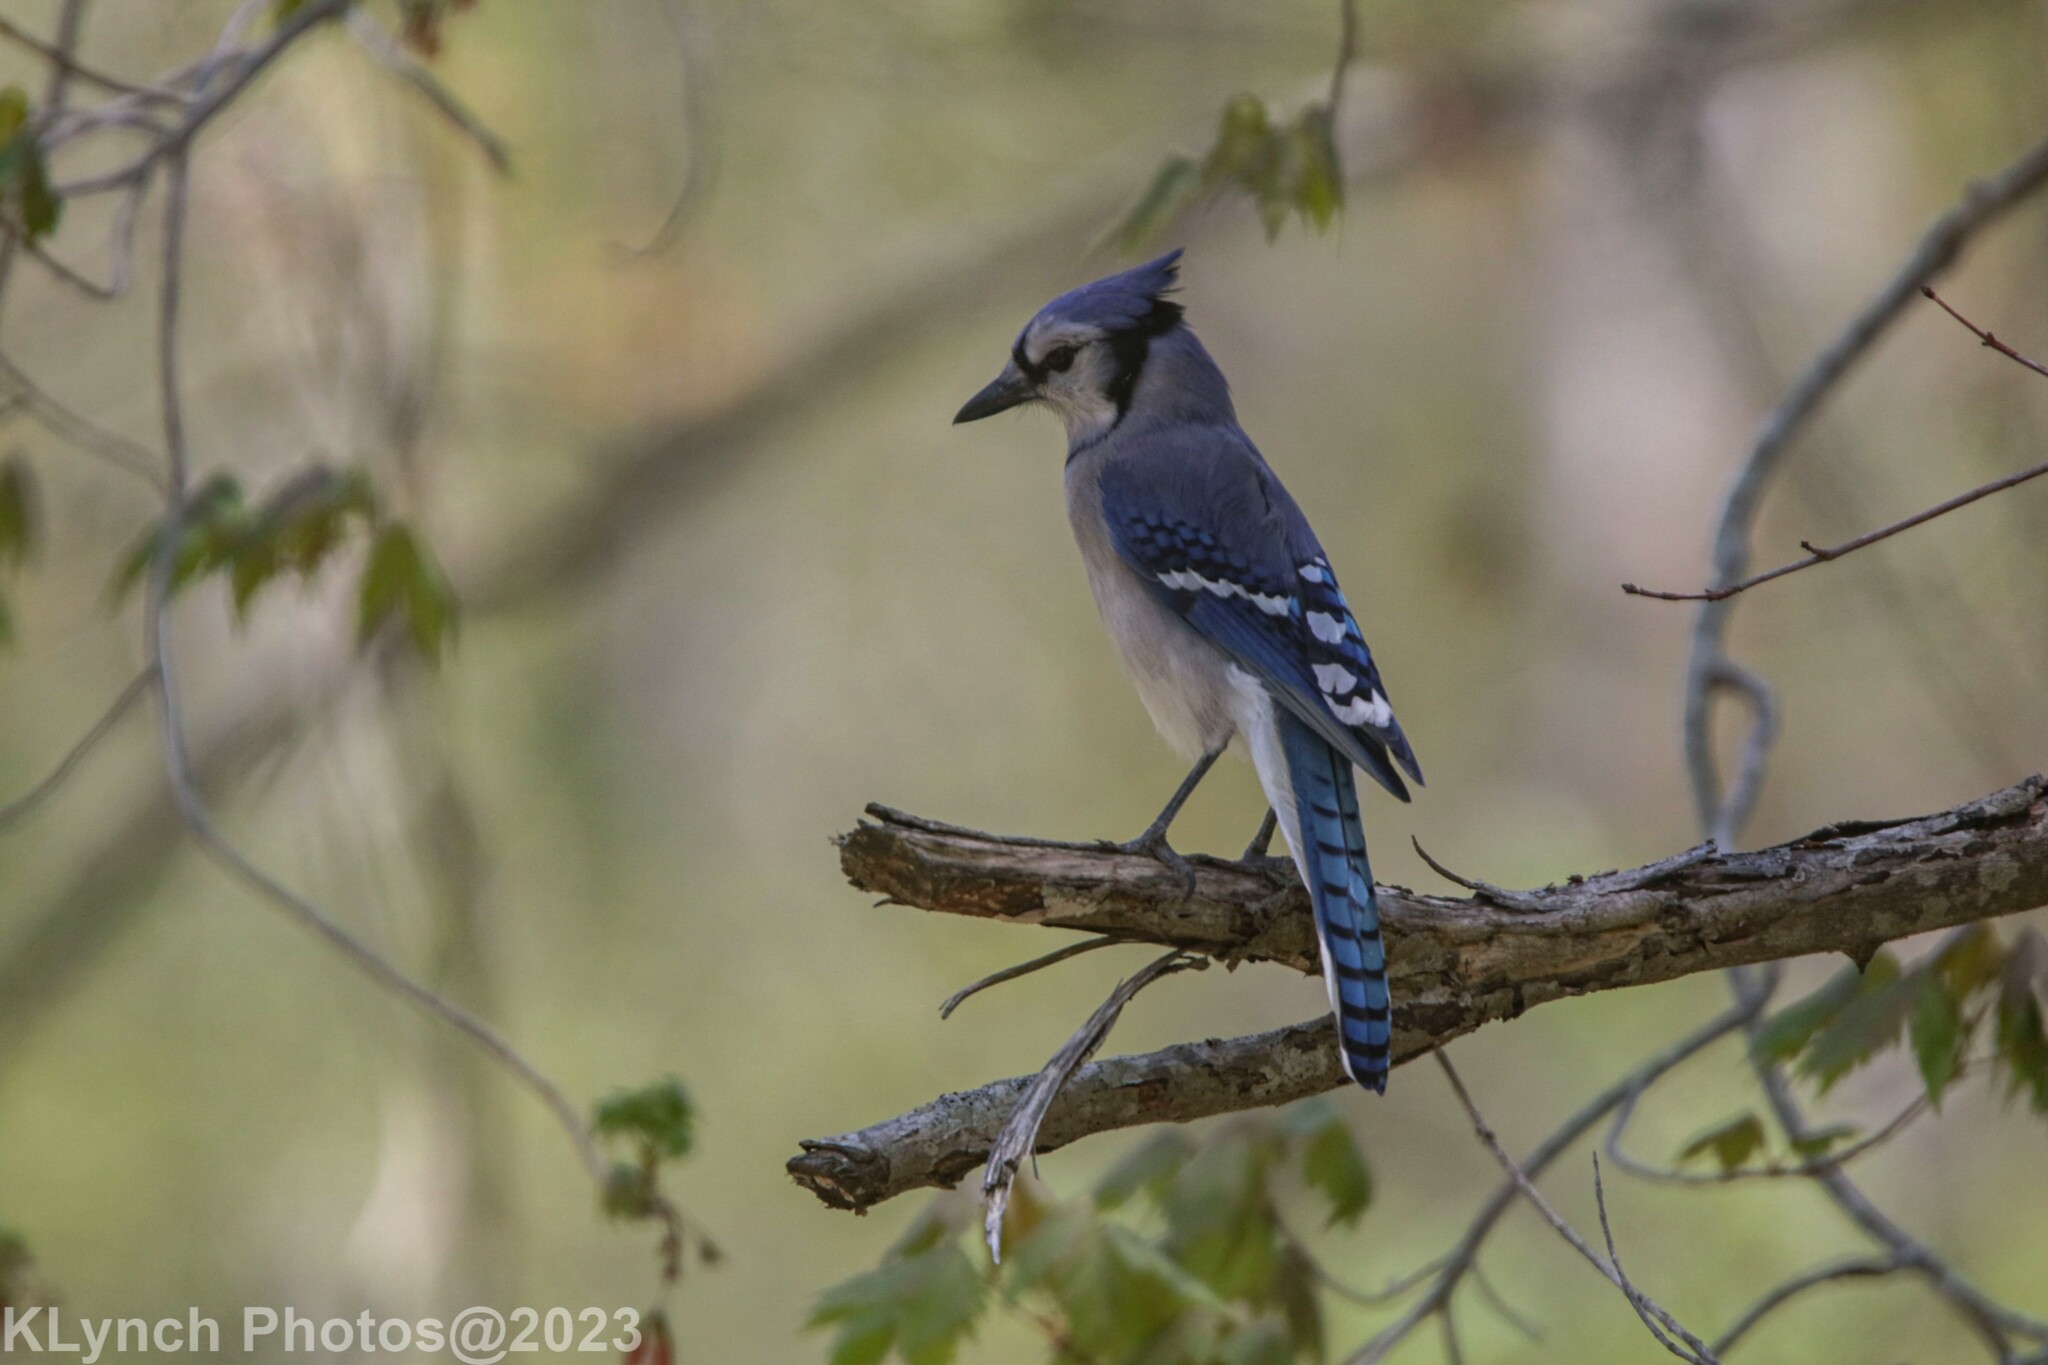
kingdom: Animalia
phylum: Chordata
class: Aves
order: Passeriformes
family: Corvidae
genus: Cyanocitta
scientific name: Cyanocitta cristata
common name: Blue jay
